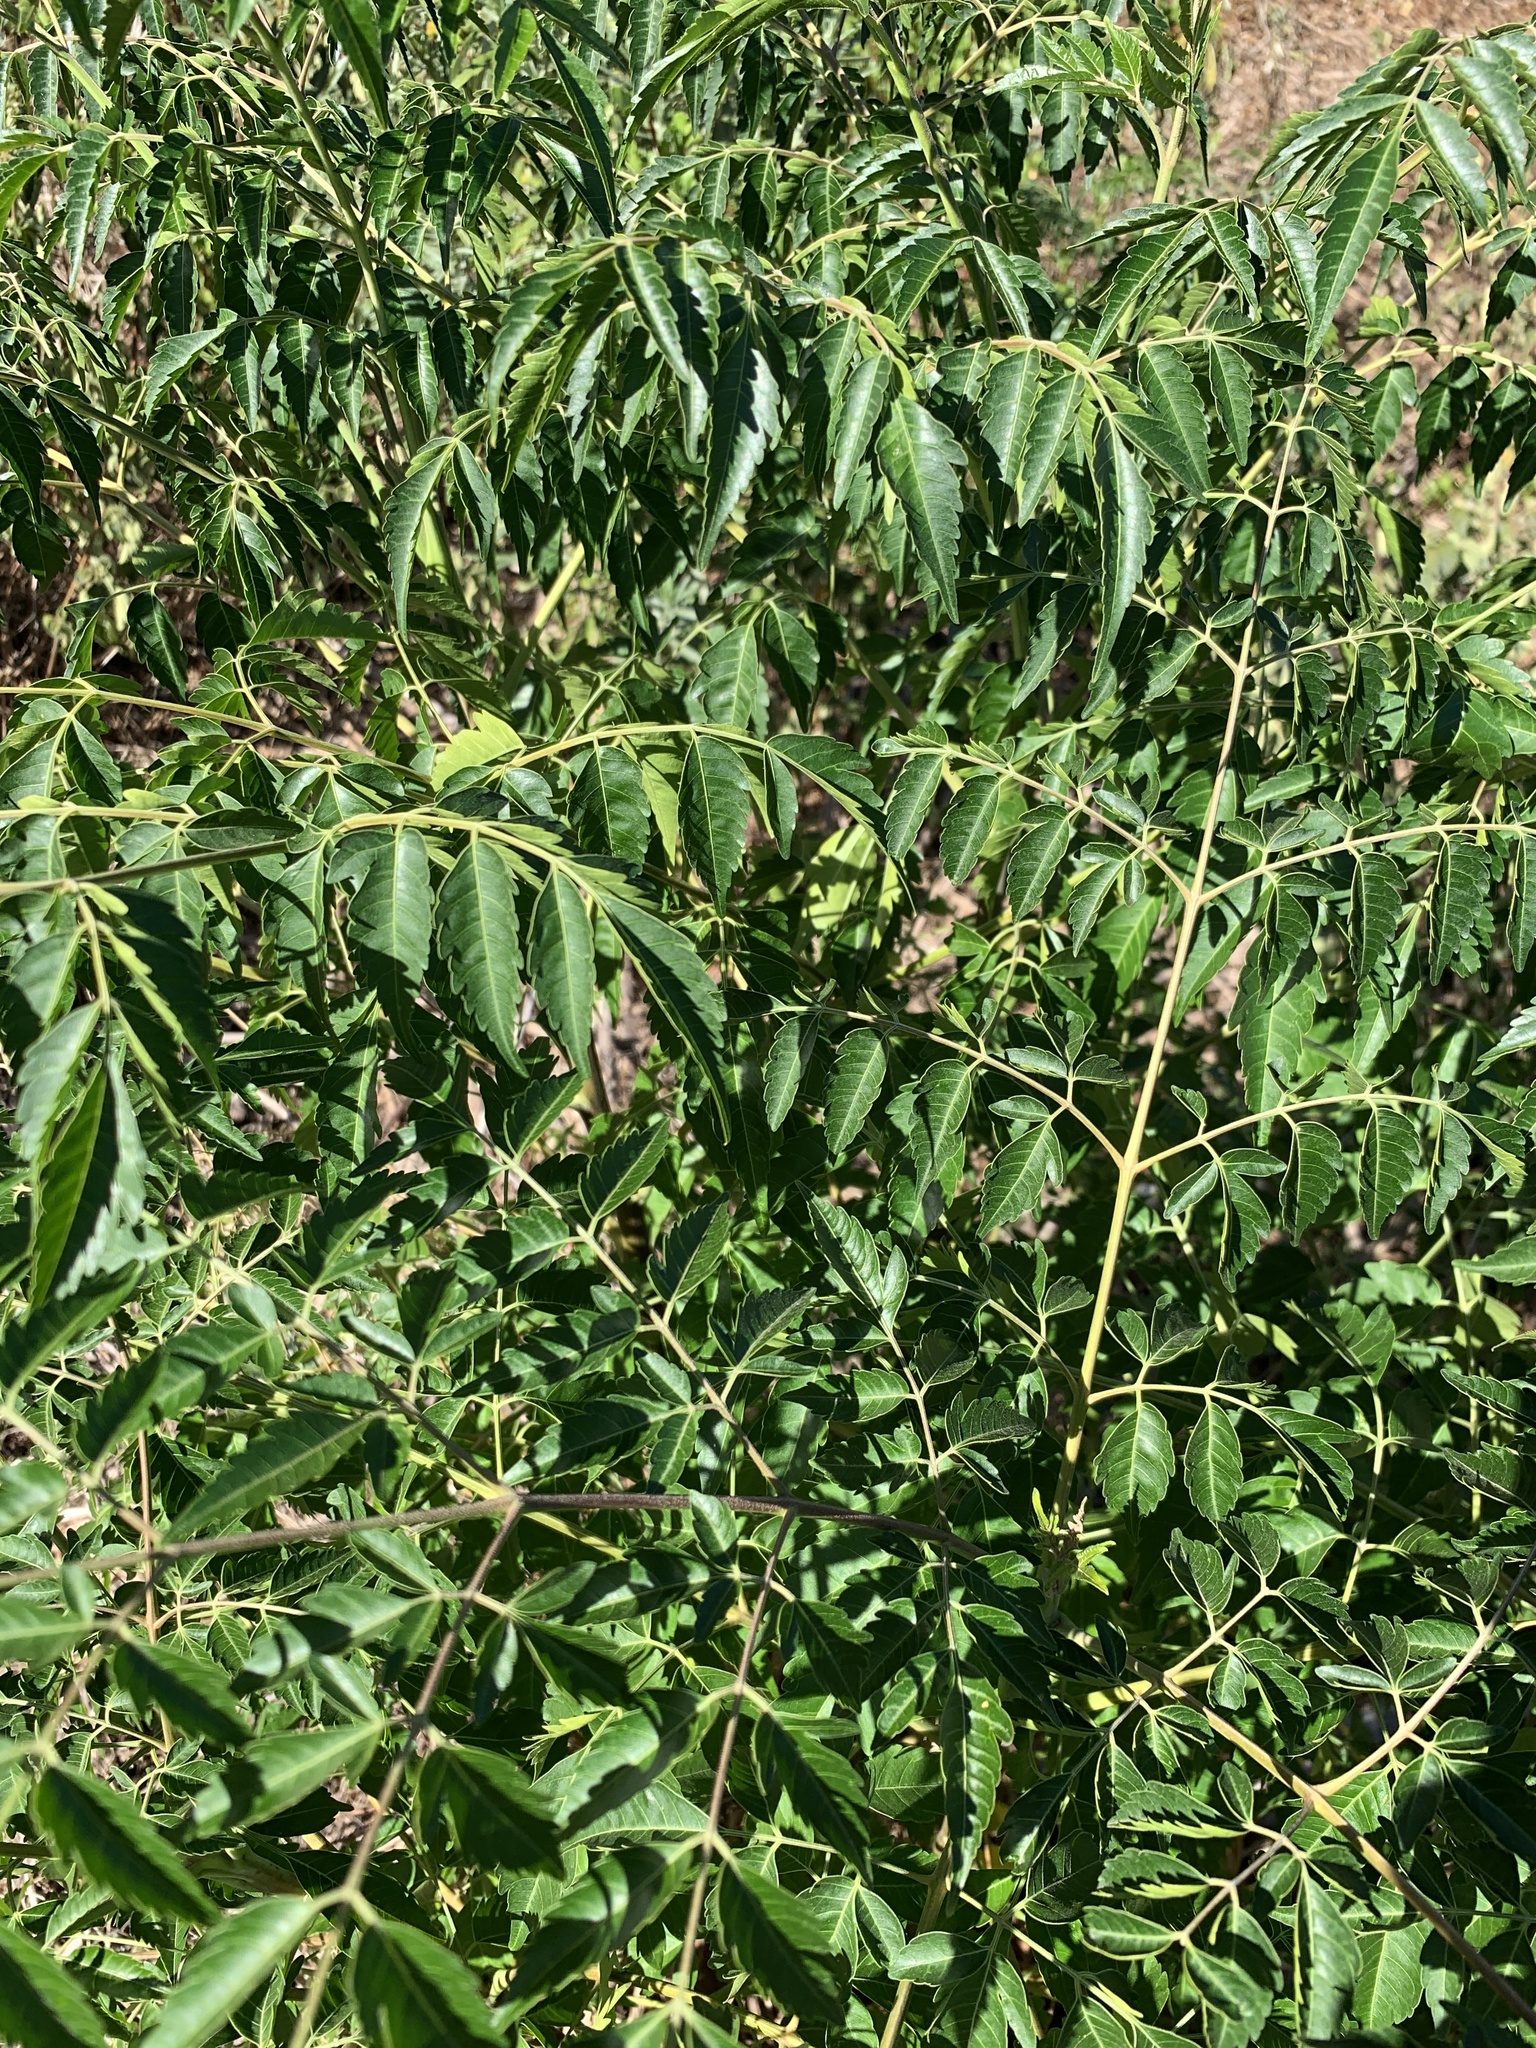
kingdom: Plantae
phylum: Tracheophyta
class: Magnoliopsida
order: Sapindales
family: Meliaceae
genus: Melia
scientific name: Melia azedarach
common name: Chinaberrytree
